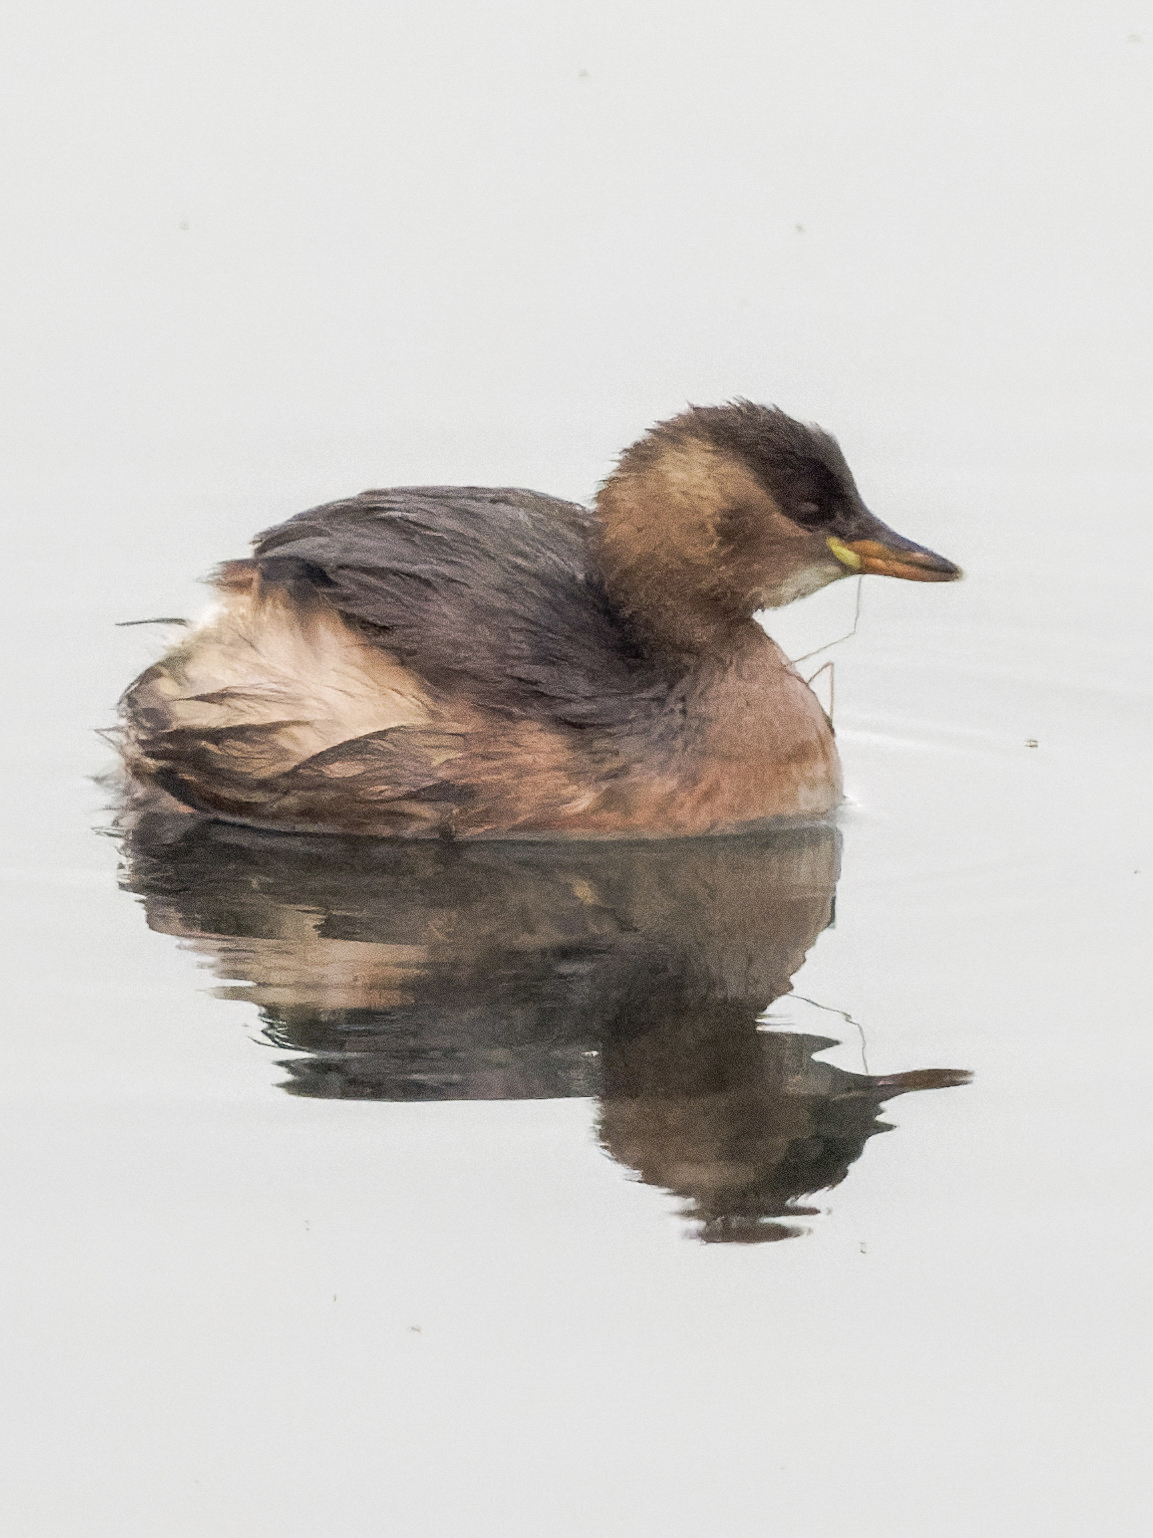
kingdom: Animalia
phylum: Chordata
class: Aves
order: Podicipediformes
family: Podicipedidae
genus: Tachybaptus
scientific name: Tachybaptus ruficollis
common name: Little grebe
